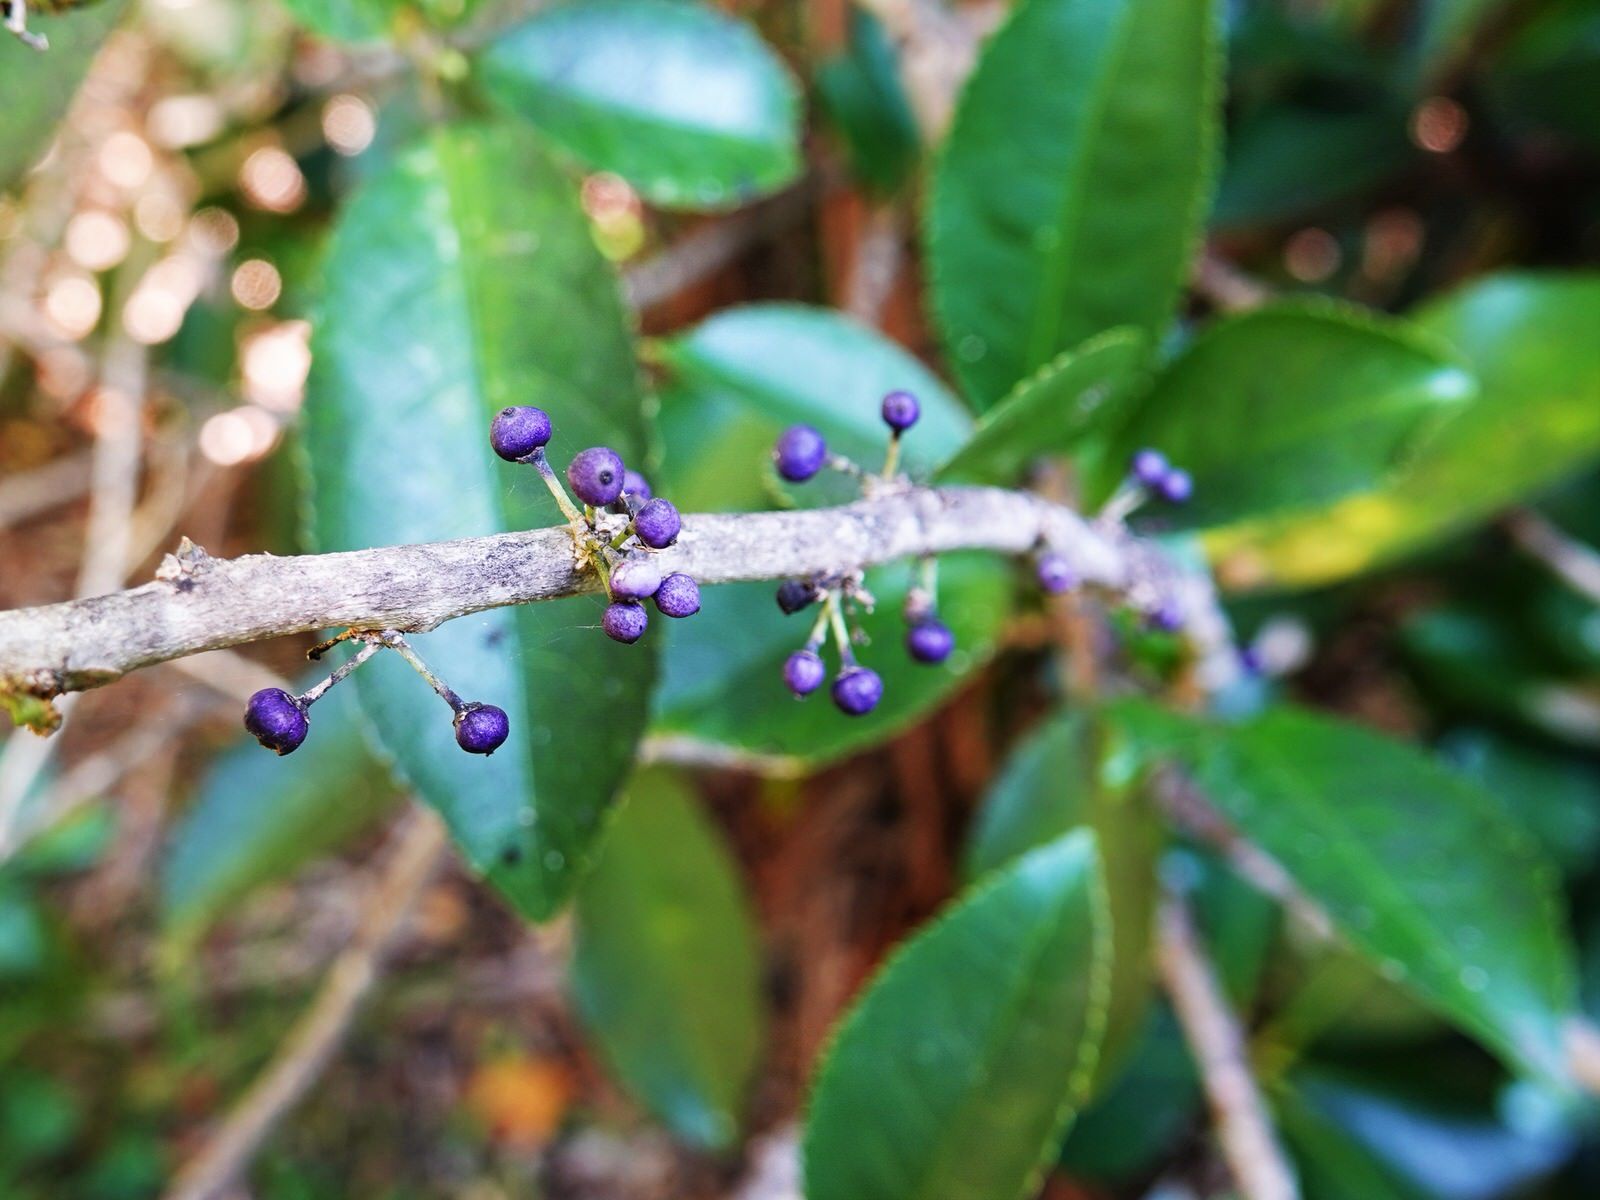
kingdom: Plantae
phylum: Tracheophyta
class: Magnoliopsida
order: Malpighiales
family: Violaceae
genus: Melicytus
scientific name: Melicytus ramiflorus
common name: Mahoe
